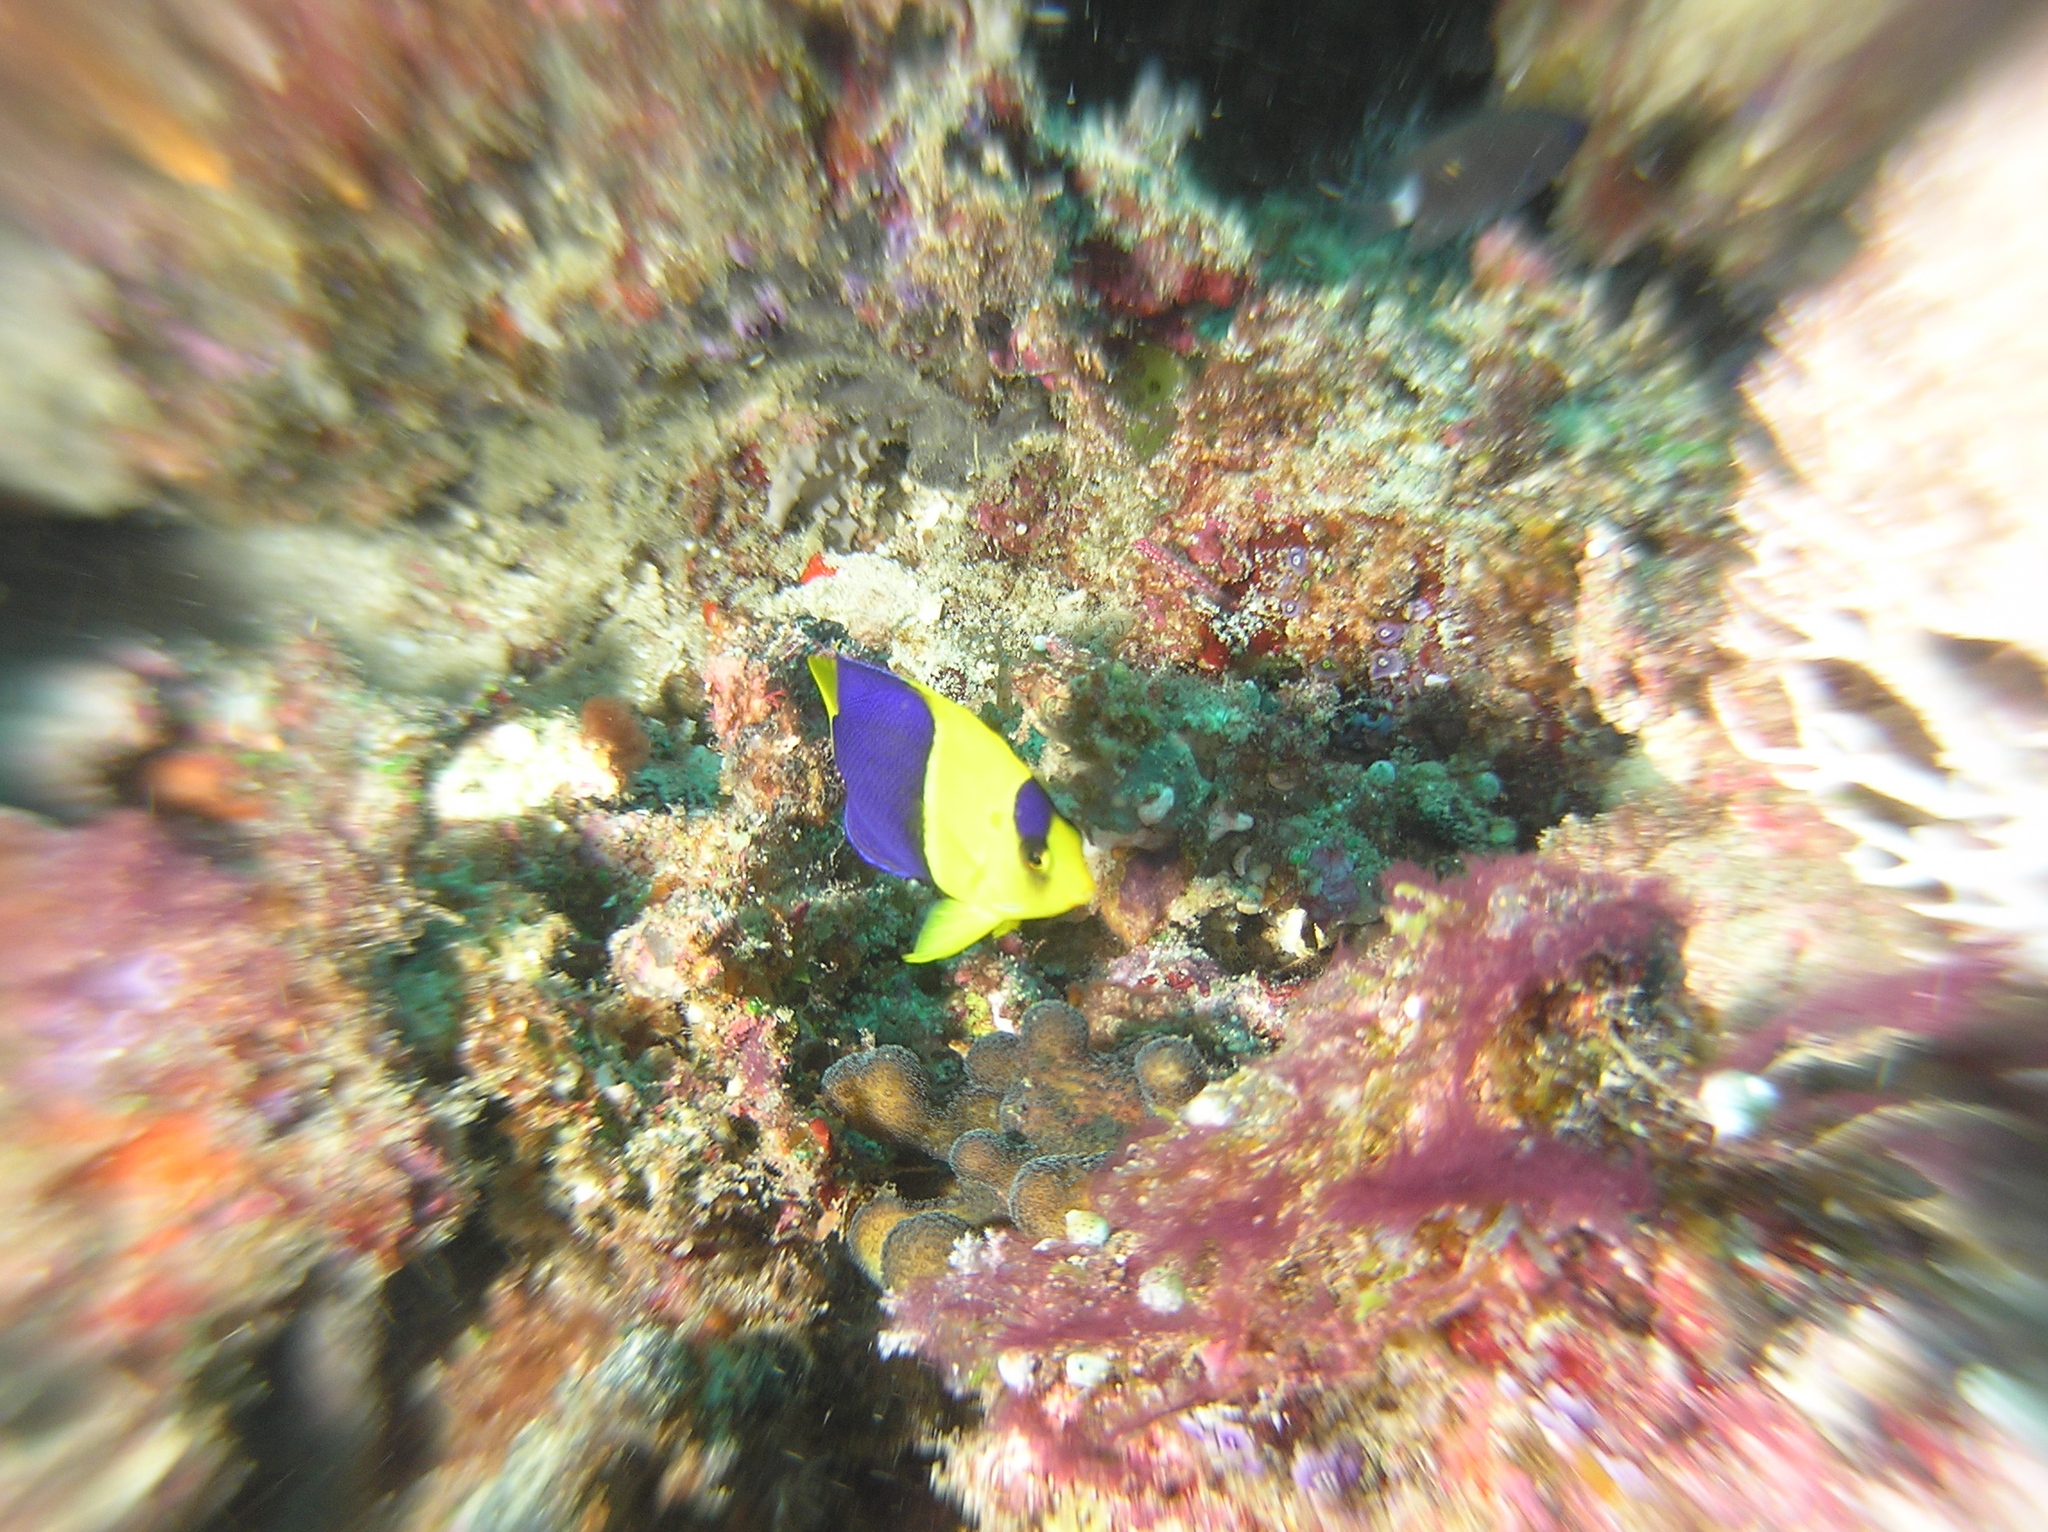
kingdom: Animalia
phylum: Chordata
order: Perciformes
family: Pomacanthidae
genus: Centropyge
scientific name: Centropyge bicolor
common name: Bicolor angelfish
